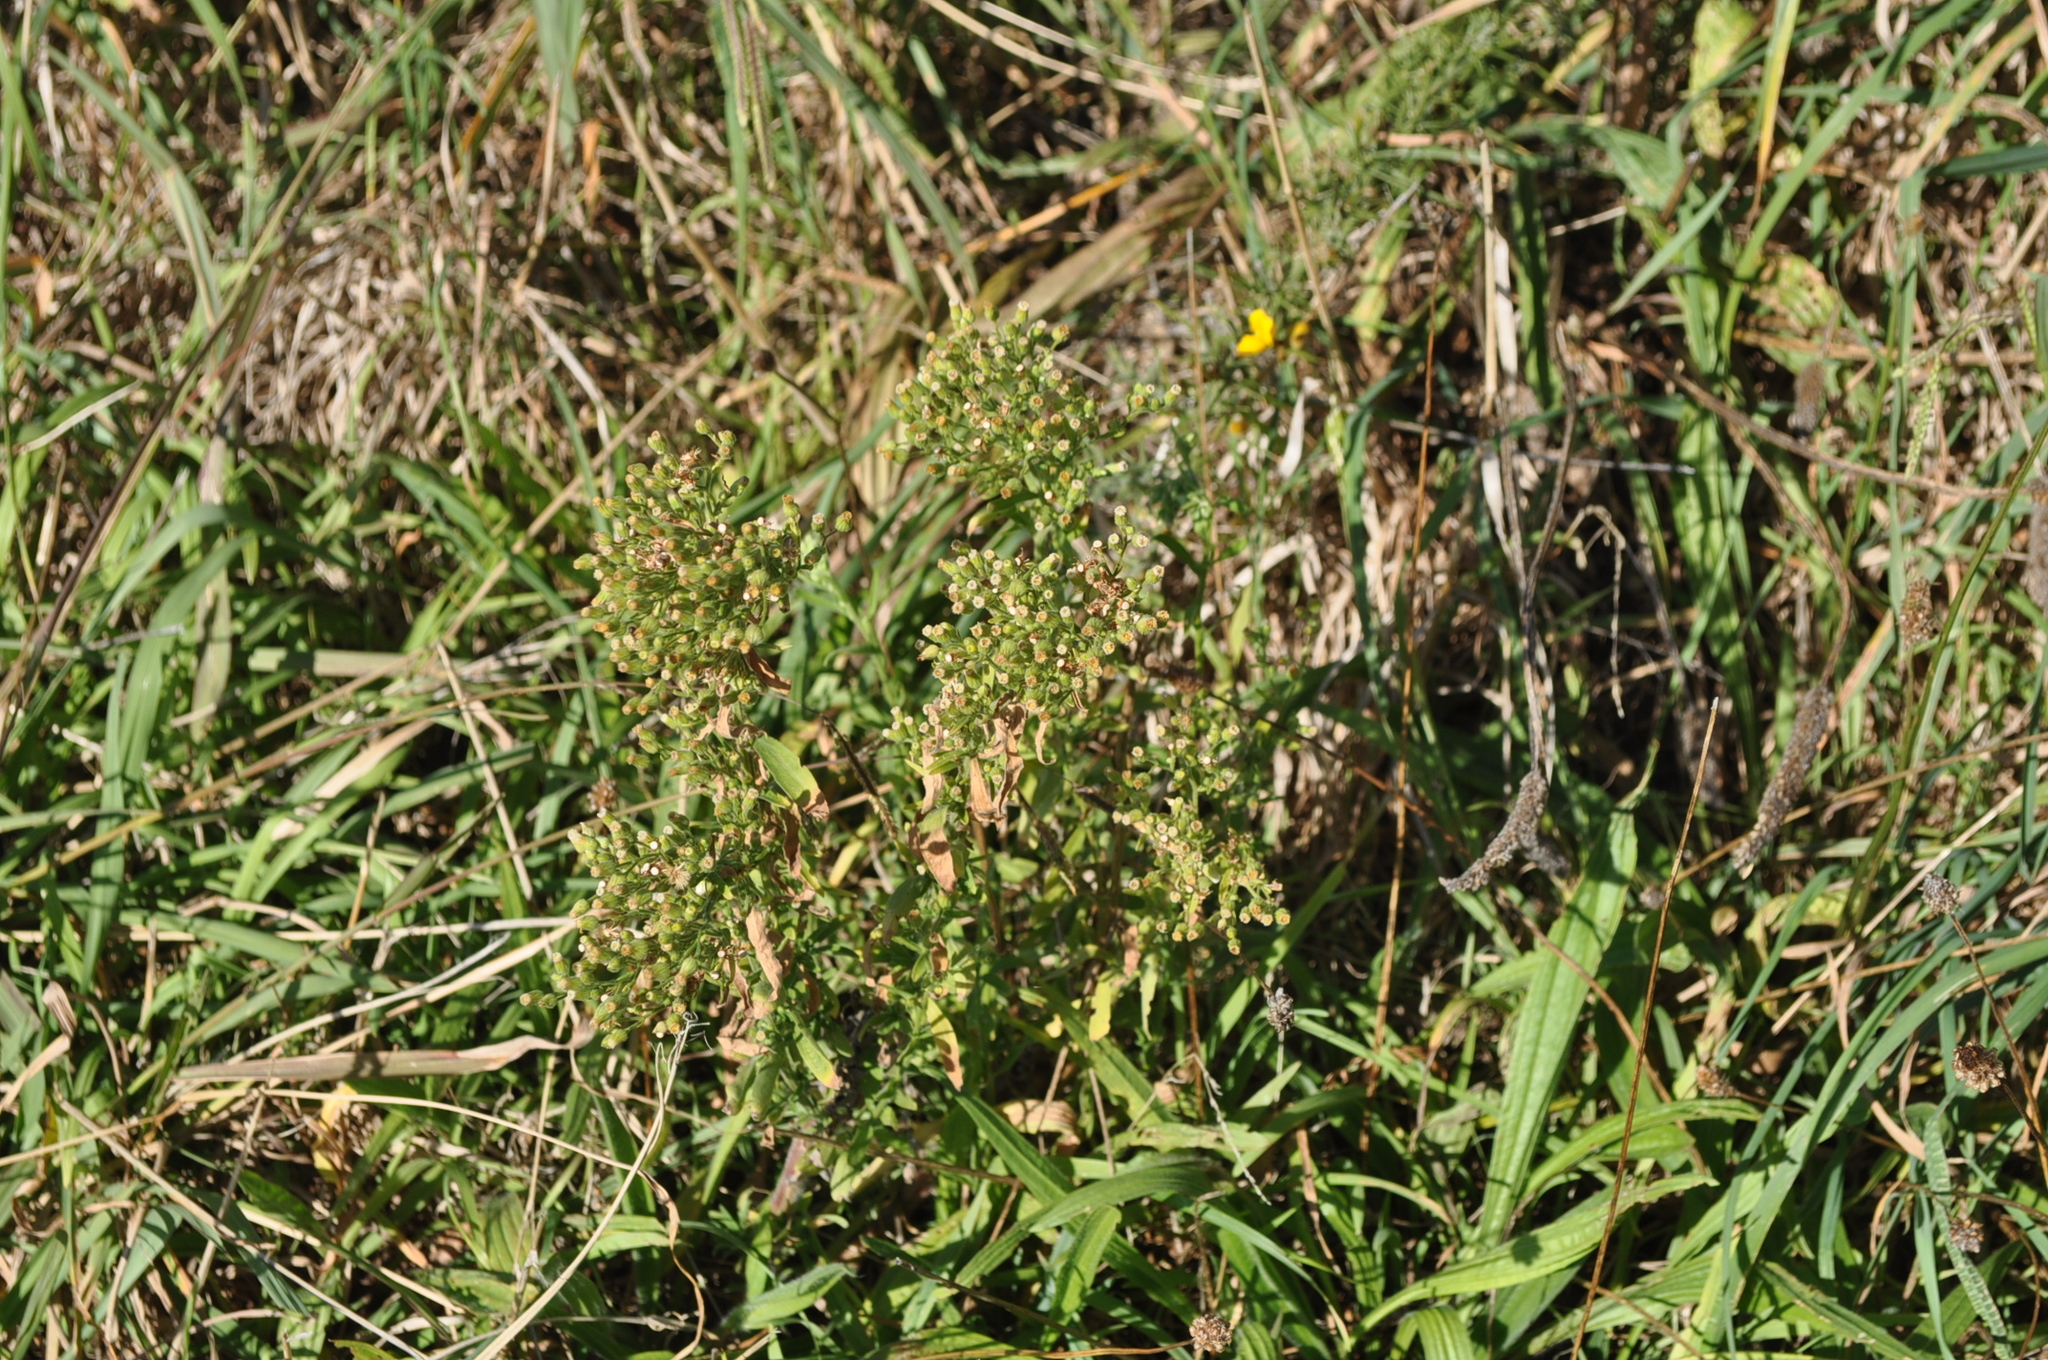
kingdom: Plantae
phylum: Tracheophyta
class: Magnoliopsida
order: Asterales
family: Asteraceae
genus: Erigeron
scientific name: Erigeron sumatrensis
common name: Daisy
